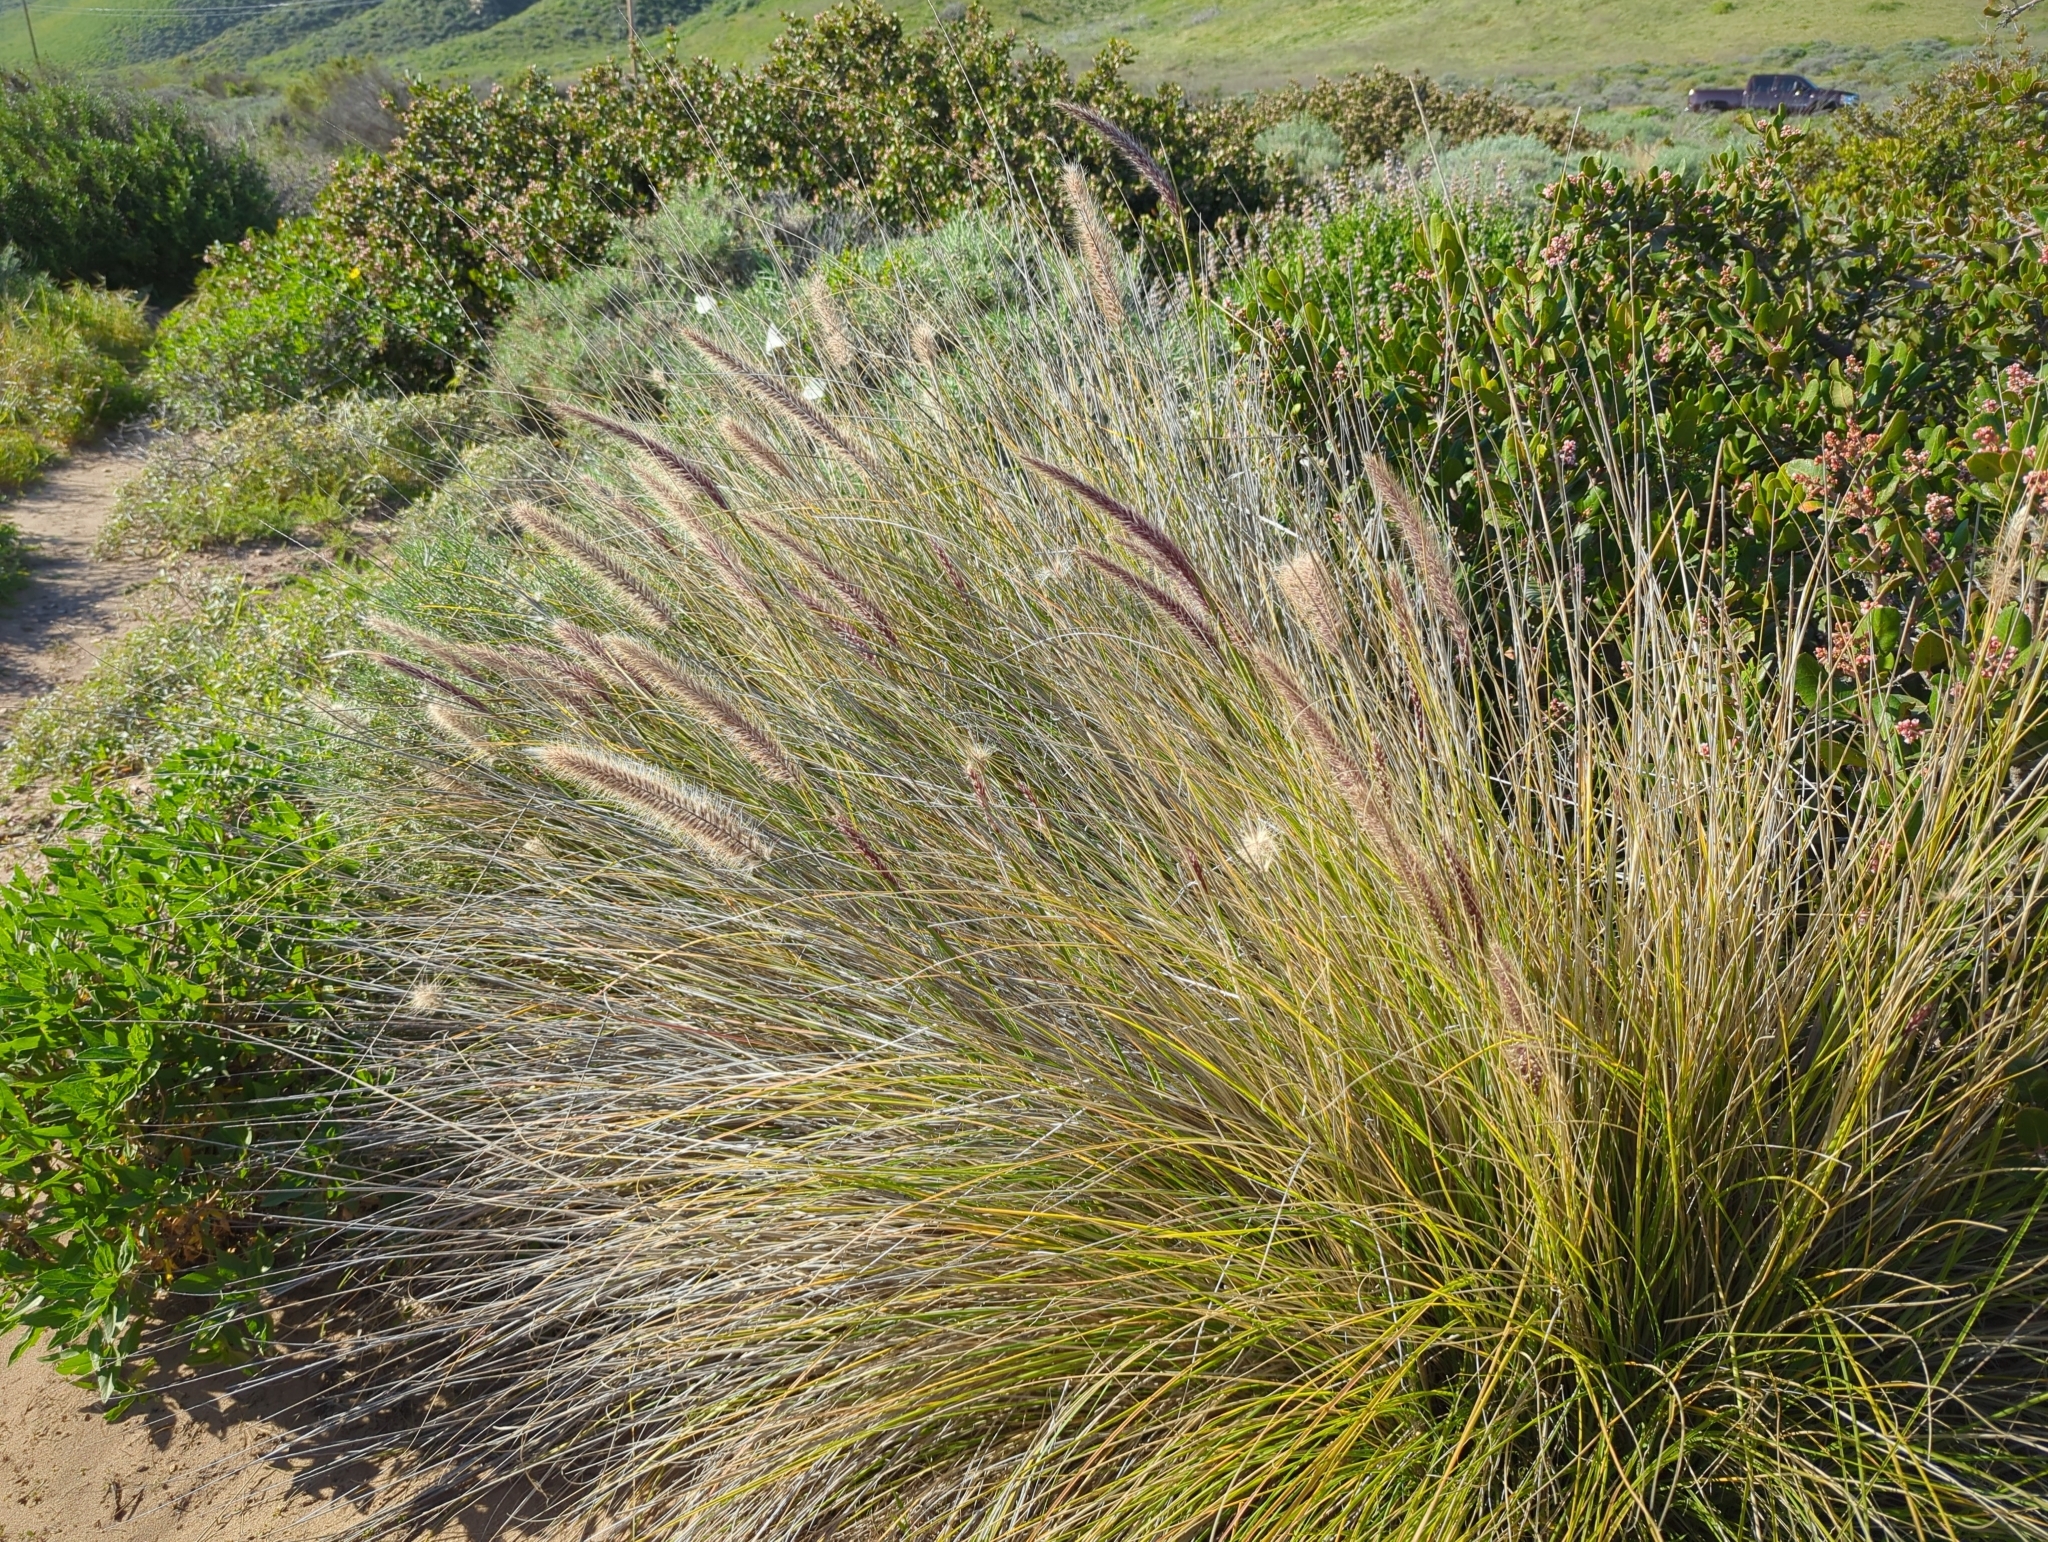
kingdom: Plantae
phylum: Tracheophyta
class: Liliopsida
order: Poales
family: Poaceae
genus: Cenchrus
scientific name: Cenchrus setaceus
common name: Crimson fountaingrass
